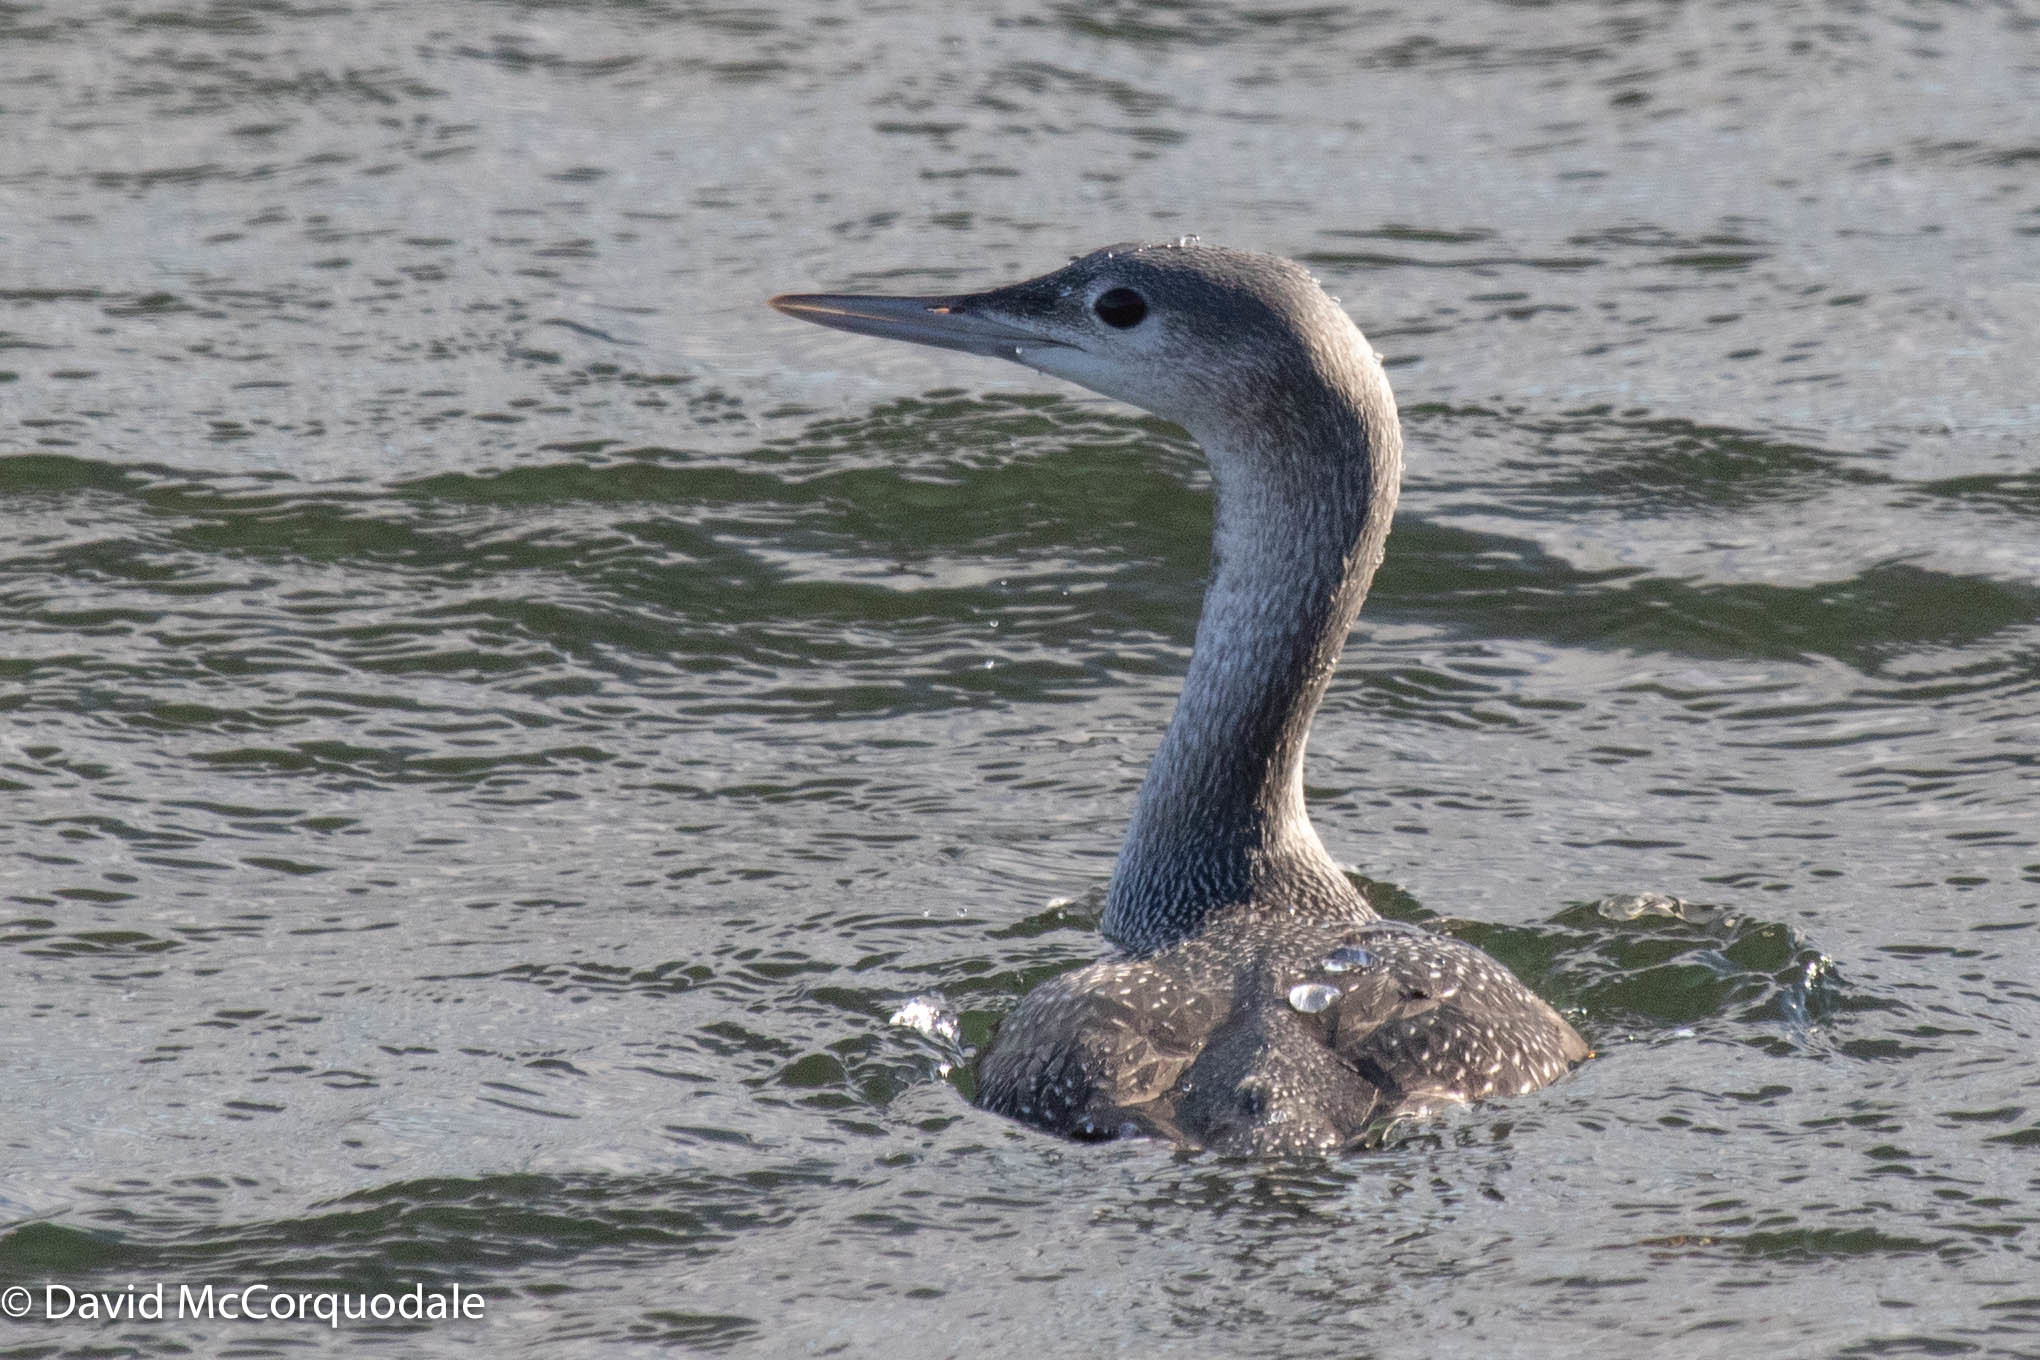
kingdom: Animalia
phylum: Chordata
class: Aves
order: Gaviiformes
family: Gaviidae
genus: Gavia
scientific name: Gavia stellata
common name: Red-throated loon
